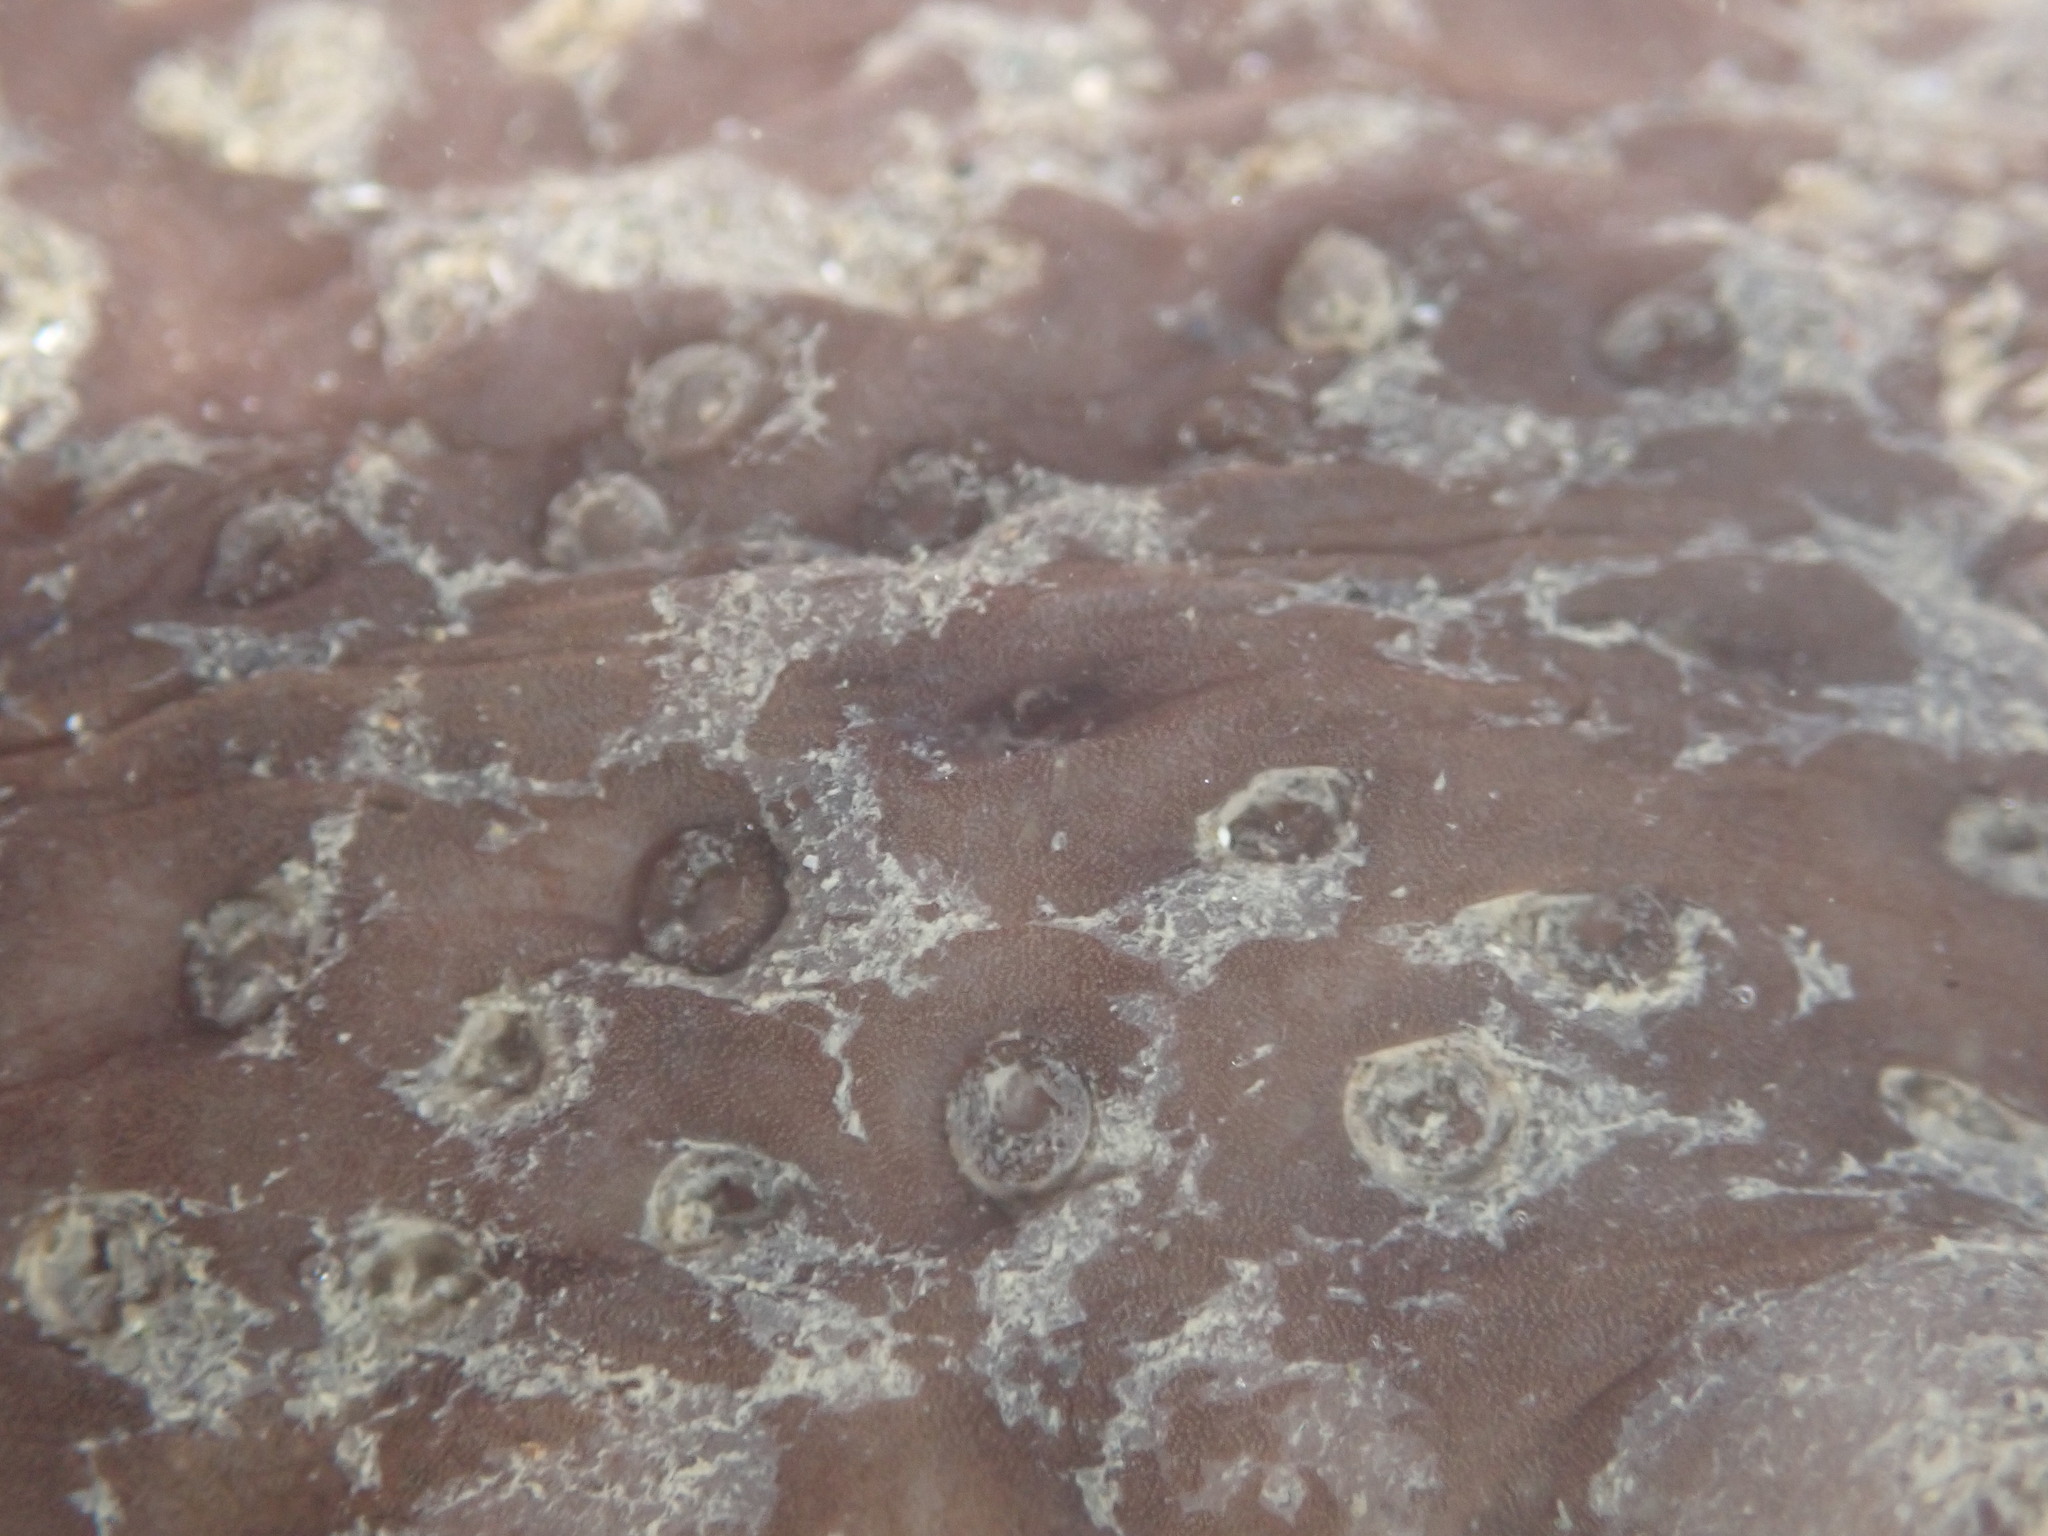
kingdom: Animalia
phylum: Echinodermata
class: Holothuroidea
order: Synallactida
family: Stichopodidae
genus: Australostichopus
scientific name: Australostichopus mollis
